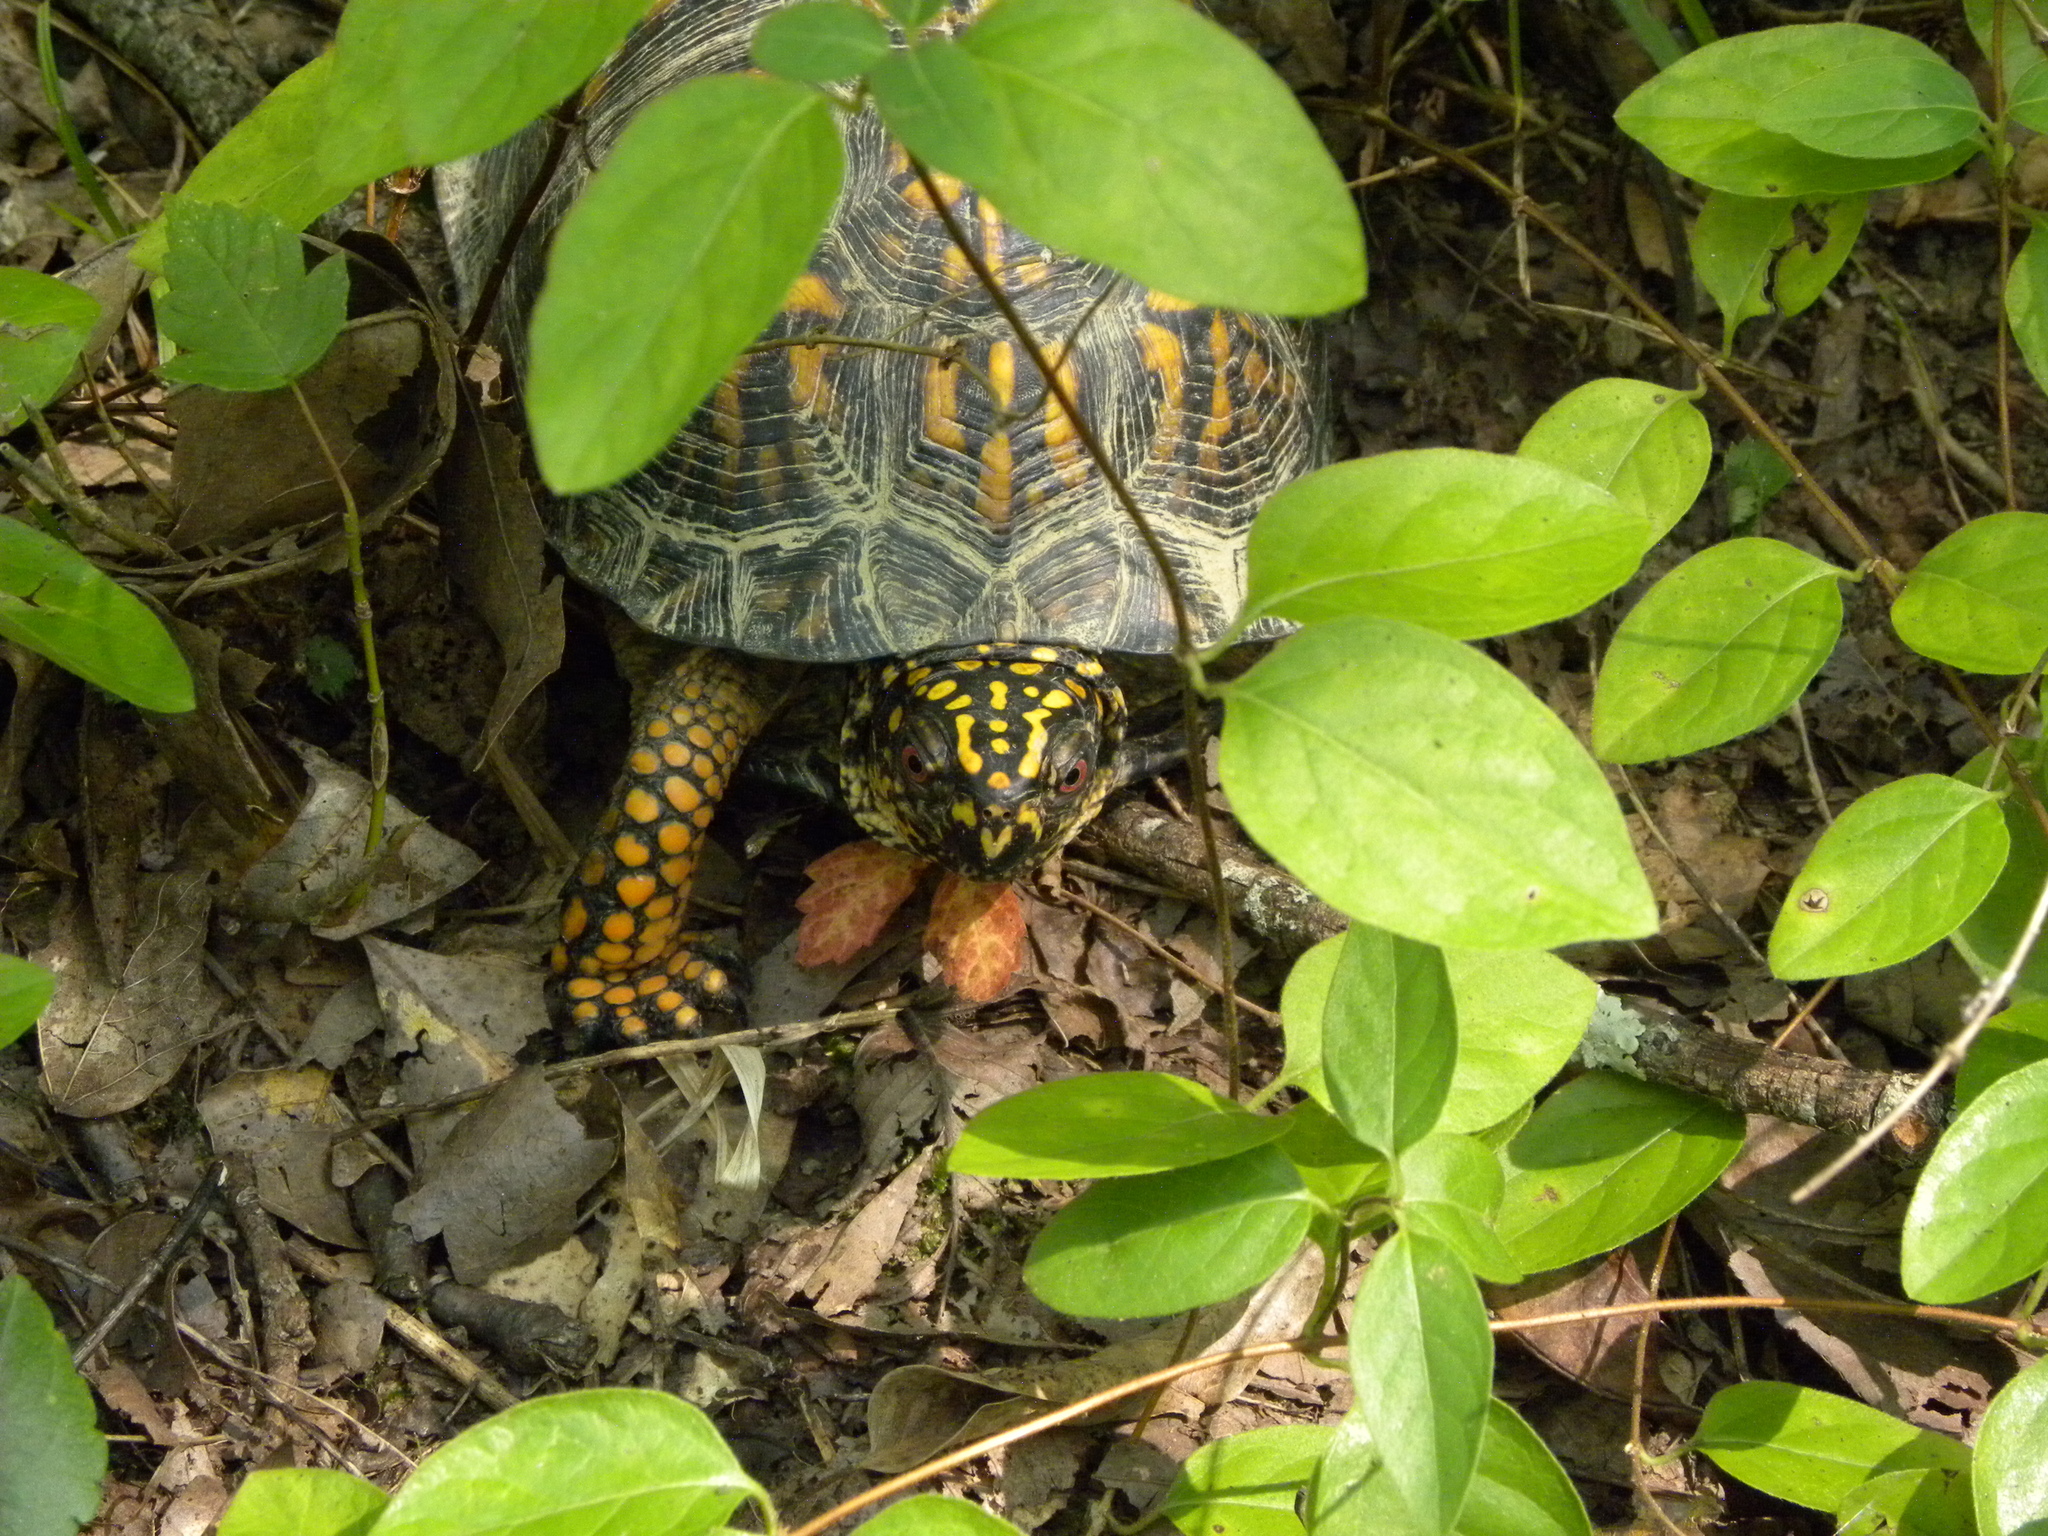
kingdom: Animalia
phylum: Chordata
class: Testudines
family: Emydidae
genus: Terrapene
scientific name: Terrapene carolina
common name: Common box turtle
